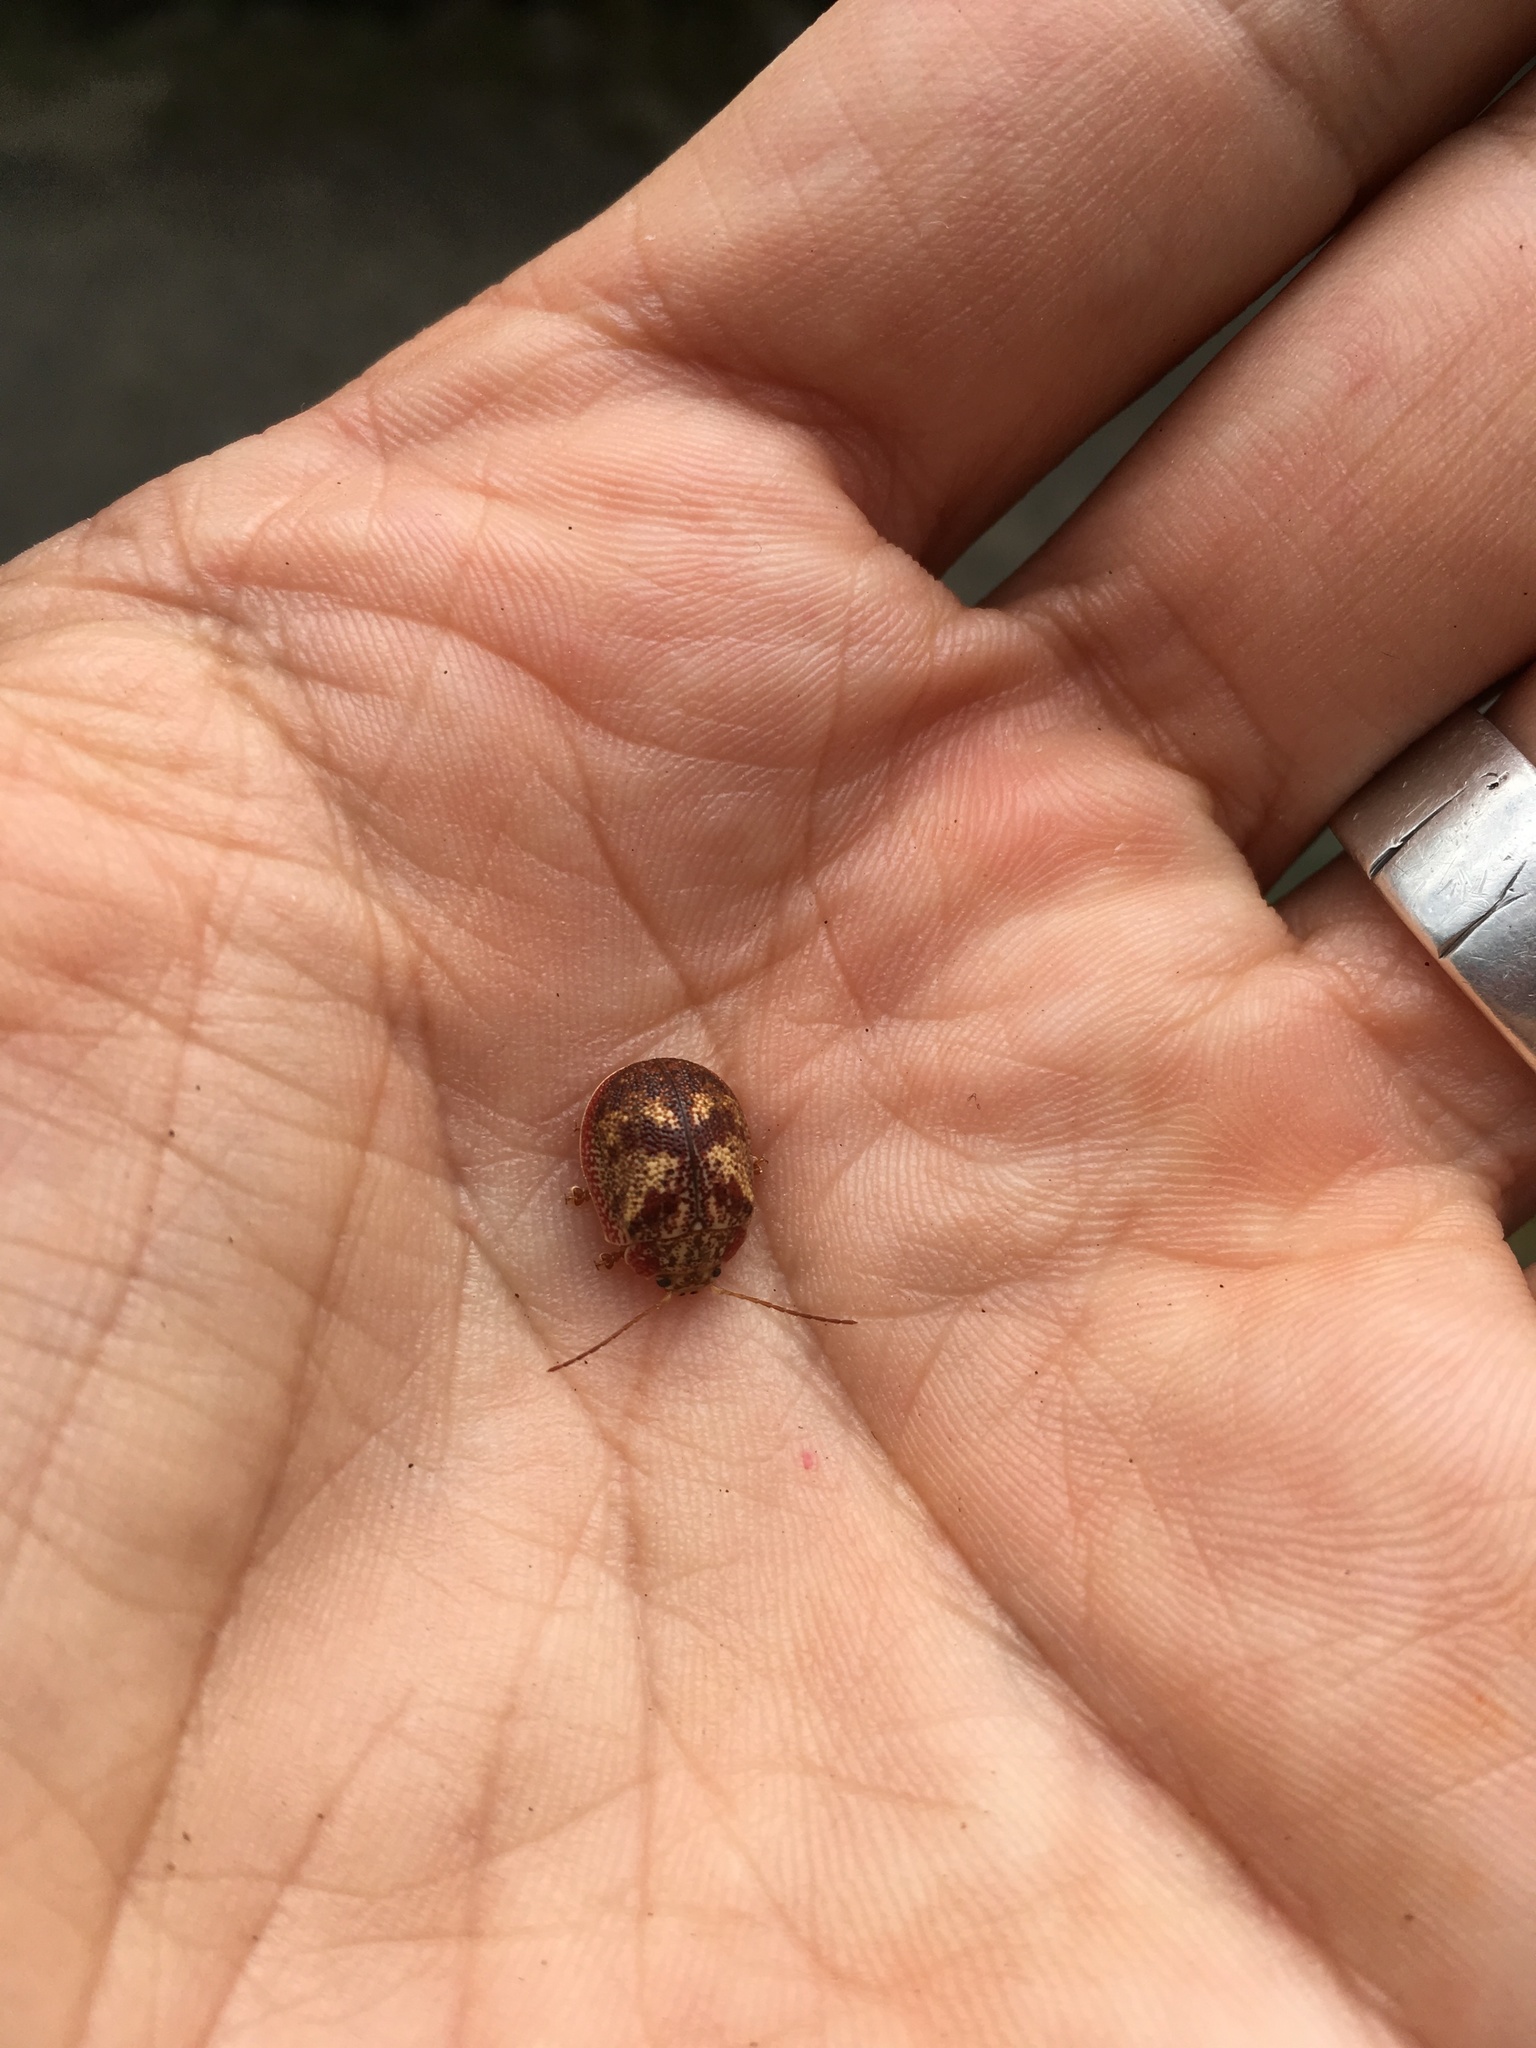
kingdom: Animalia
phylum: Arthropoda
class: Insecta
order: Coleoptera
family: Chrysomelidae
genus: Paropsis
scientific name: Paropsis charybdis
